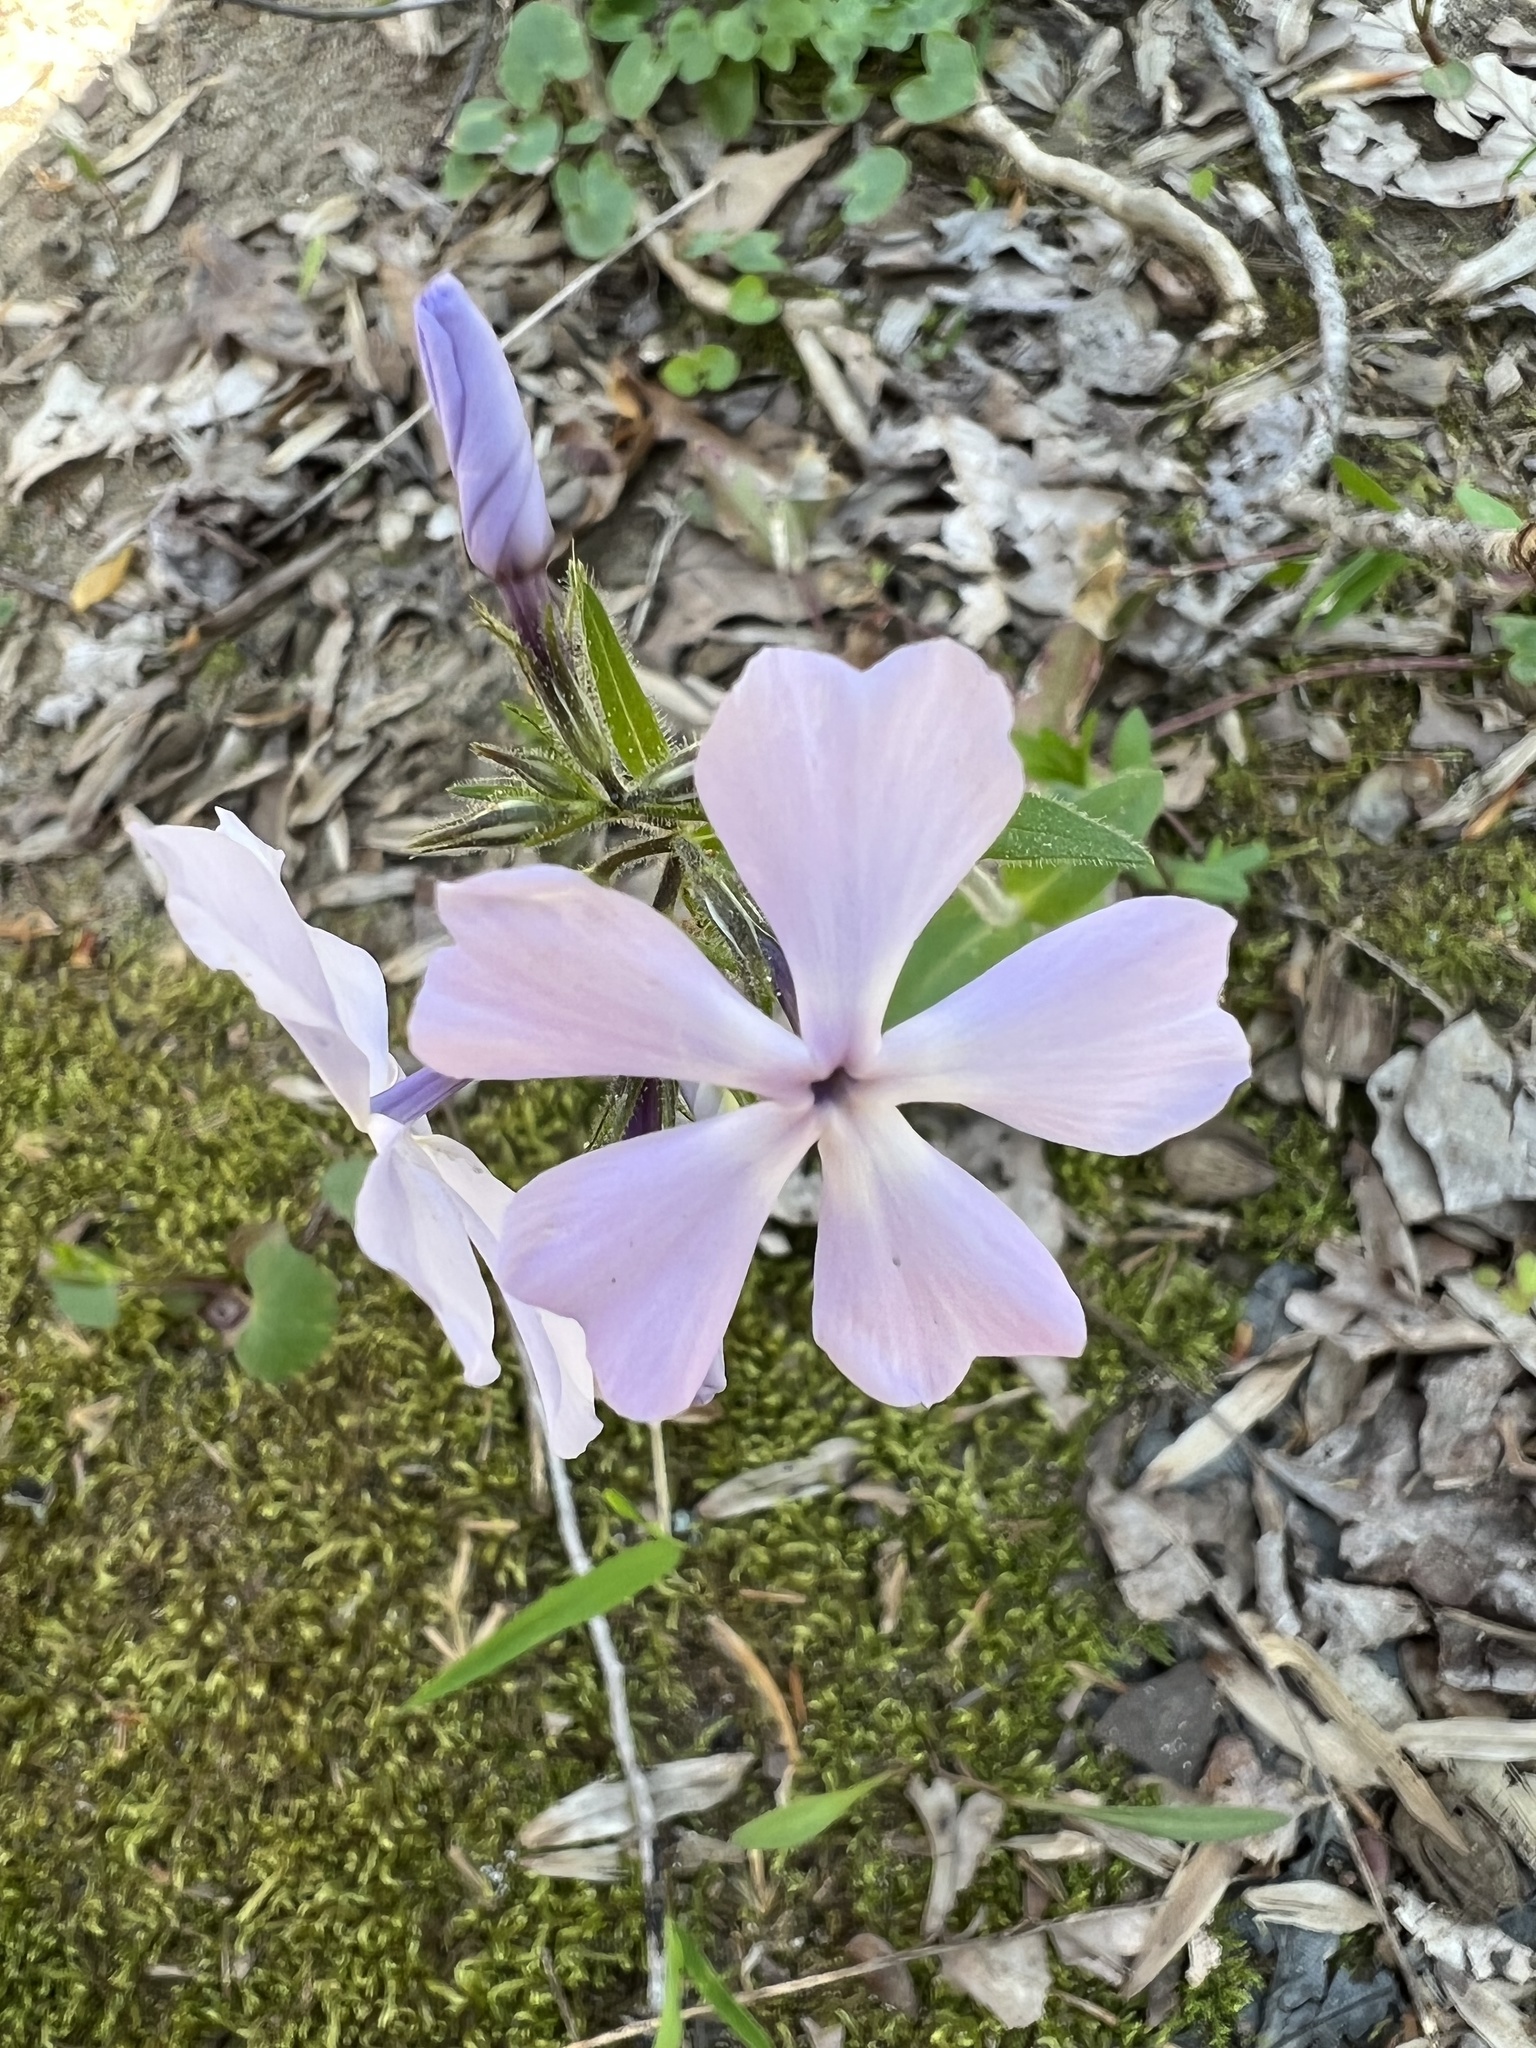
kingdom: Plantae
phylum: Tracheophyta
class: Magnoliopsida
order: Ericales
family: Polemoniaceae
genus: Phlox
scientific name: Phlox divaricata
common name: Blue phlox
